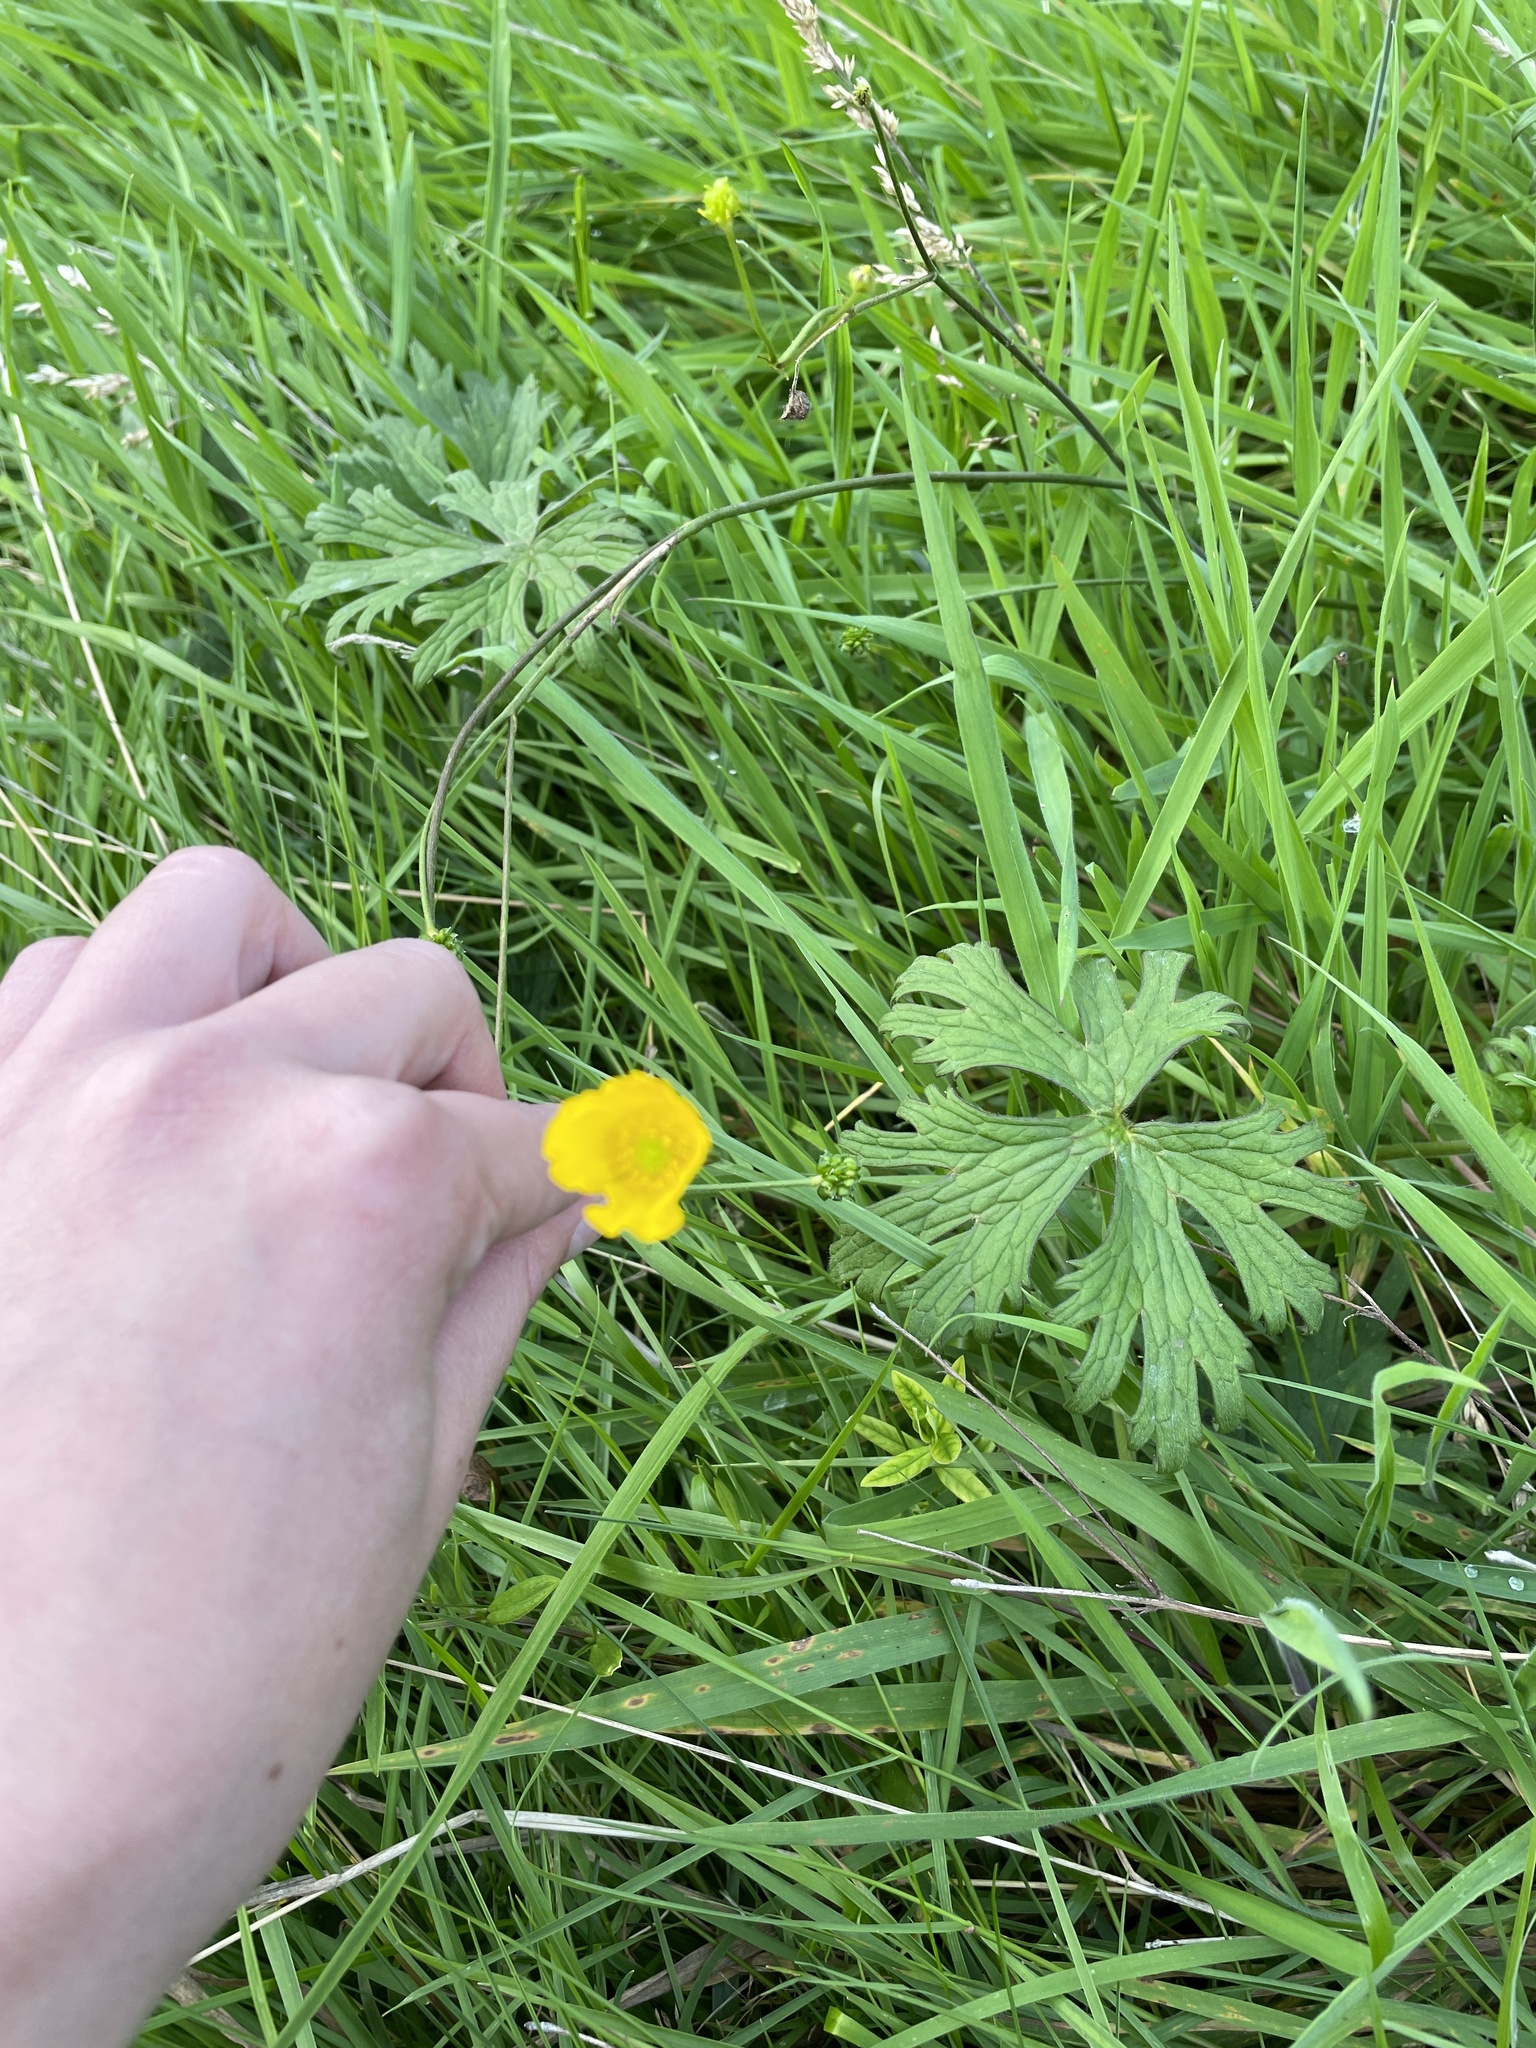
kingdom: Plantae
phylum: Tracheophyta
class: Magnoliopsida
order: Ranunculales
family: Ranunculaceae
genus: Ranunculus
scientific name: Ranunculus acris
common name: Meadow buttercup
